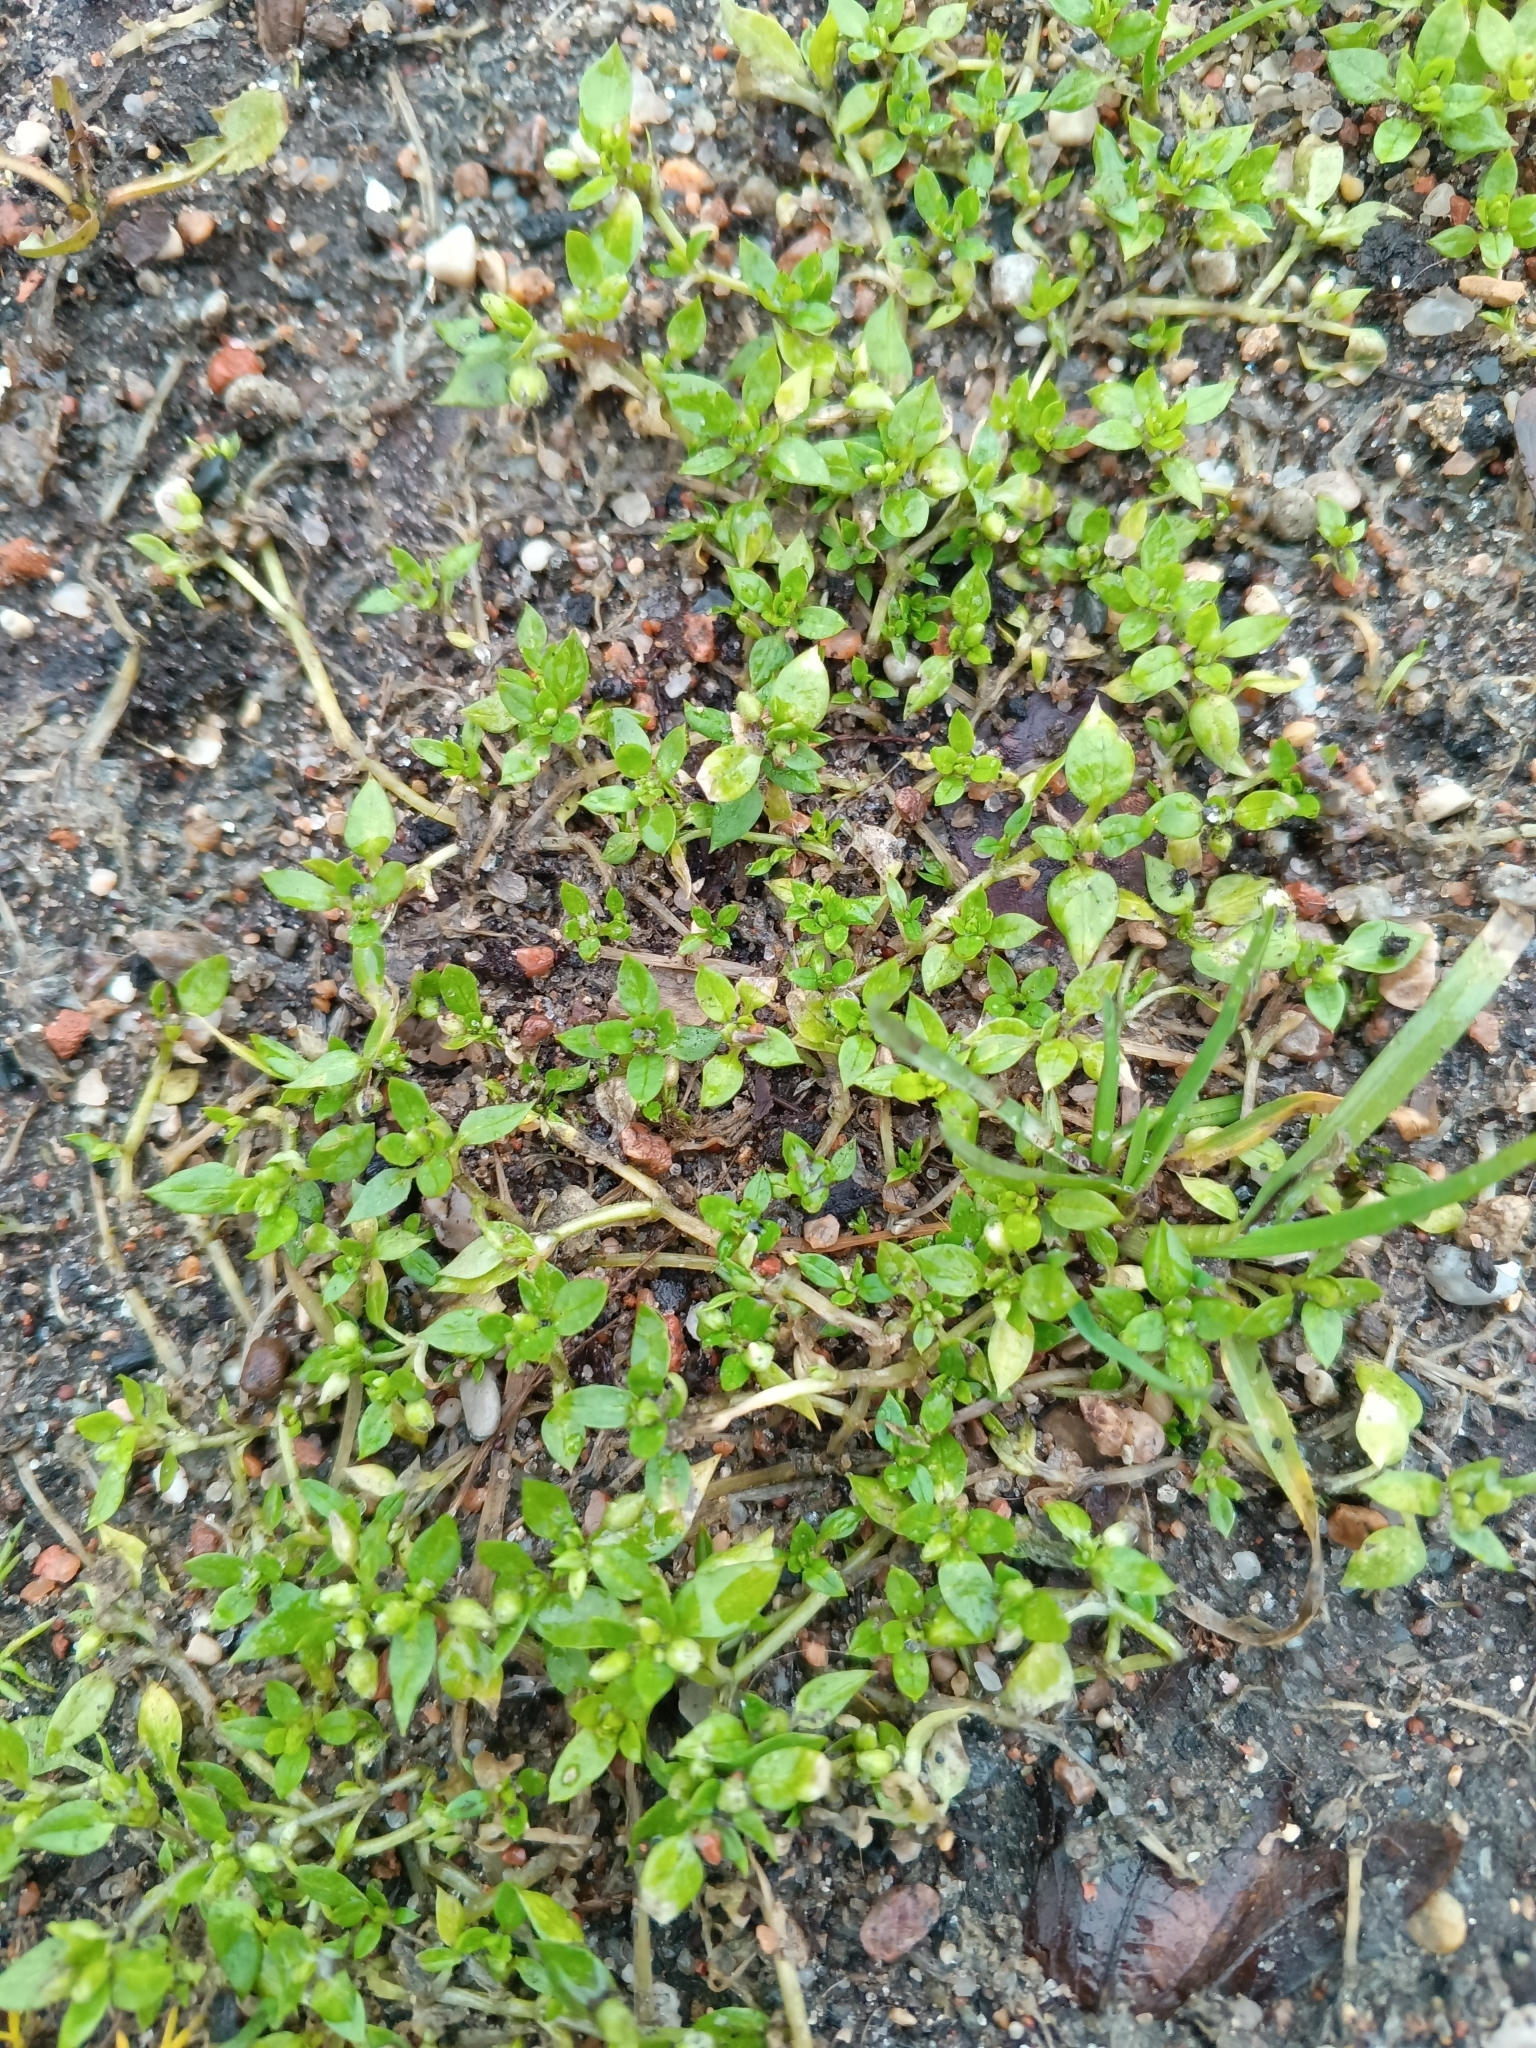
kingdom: Plantae
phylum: Tracheophyta
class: Magnoliopsida
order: Caryophyllales
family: Caryophyllaceae
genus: Stellaria
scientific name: Stellaria media
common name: Common chickweed
